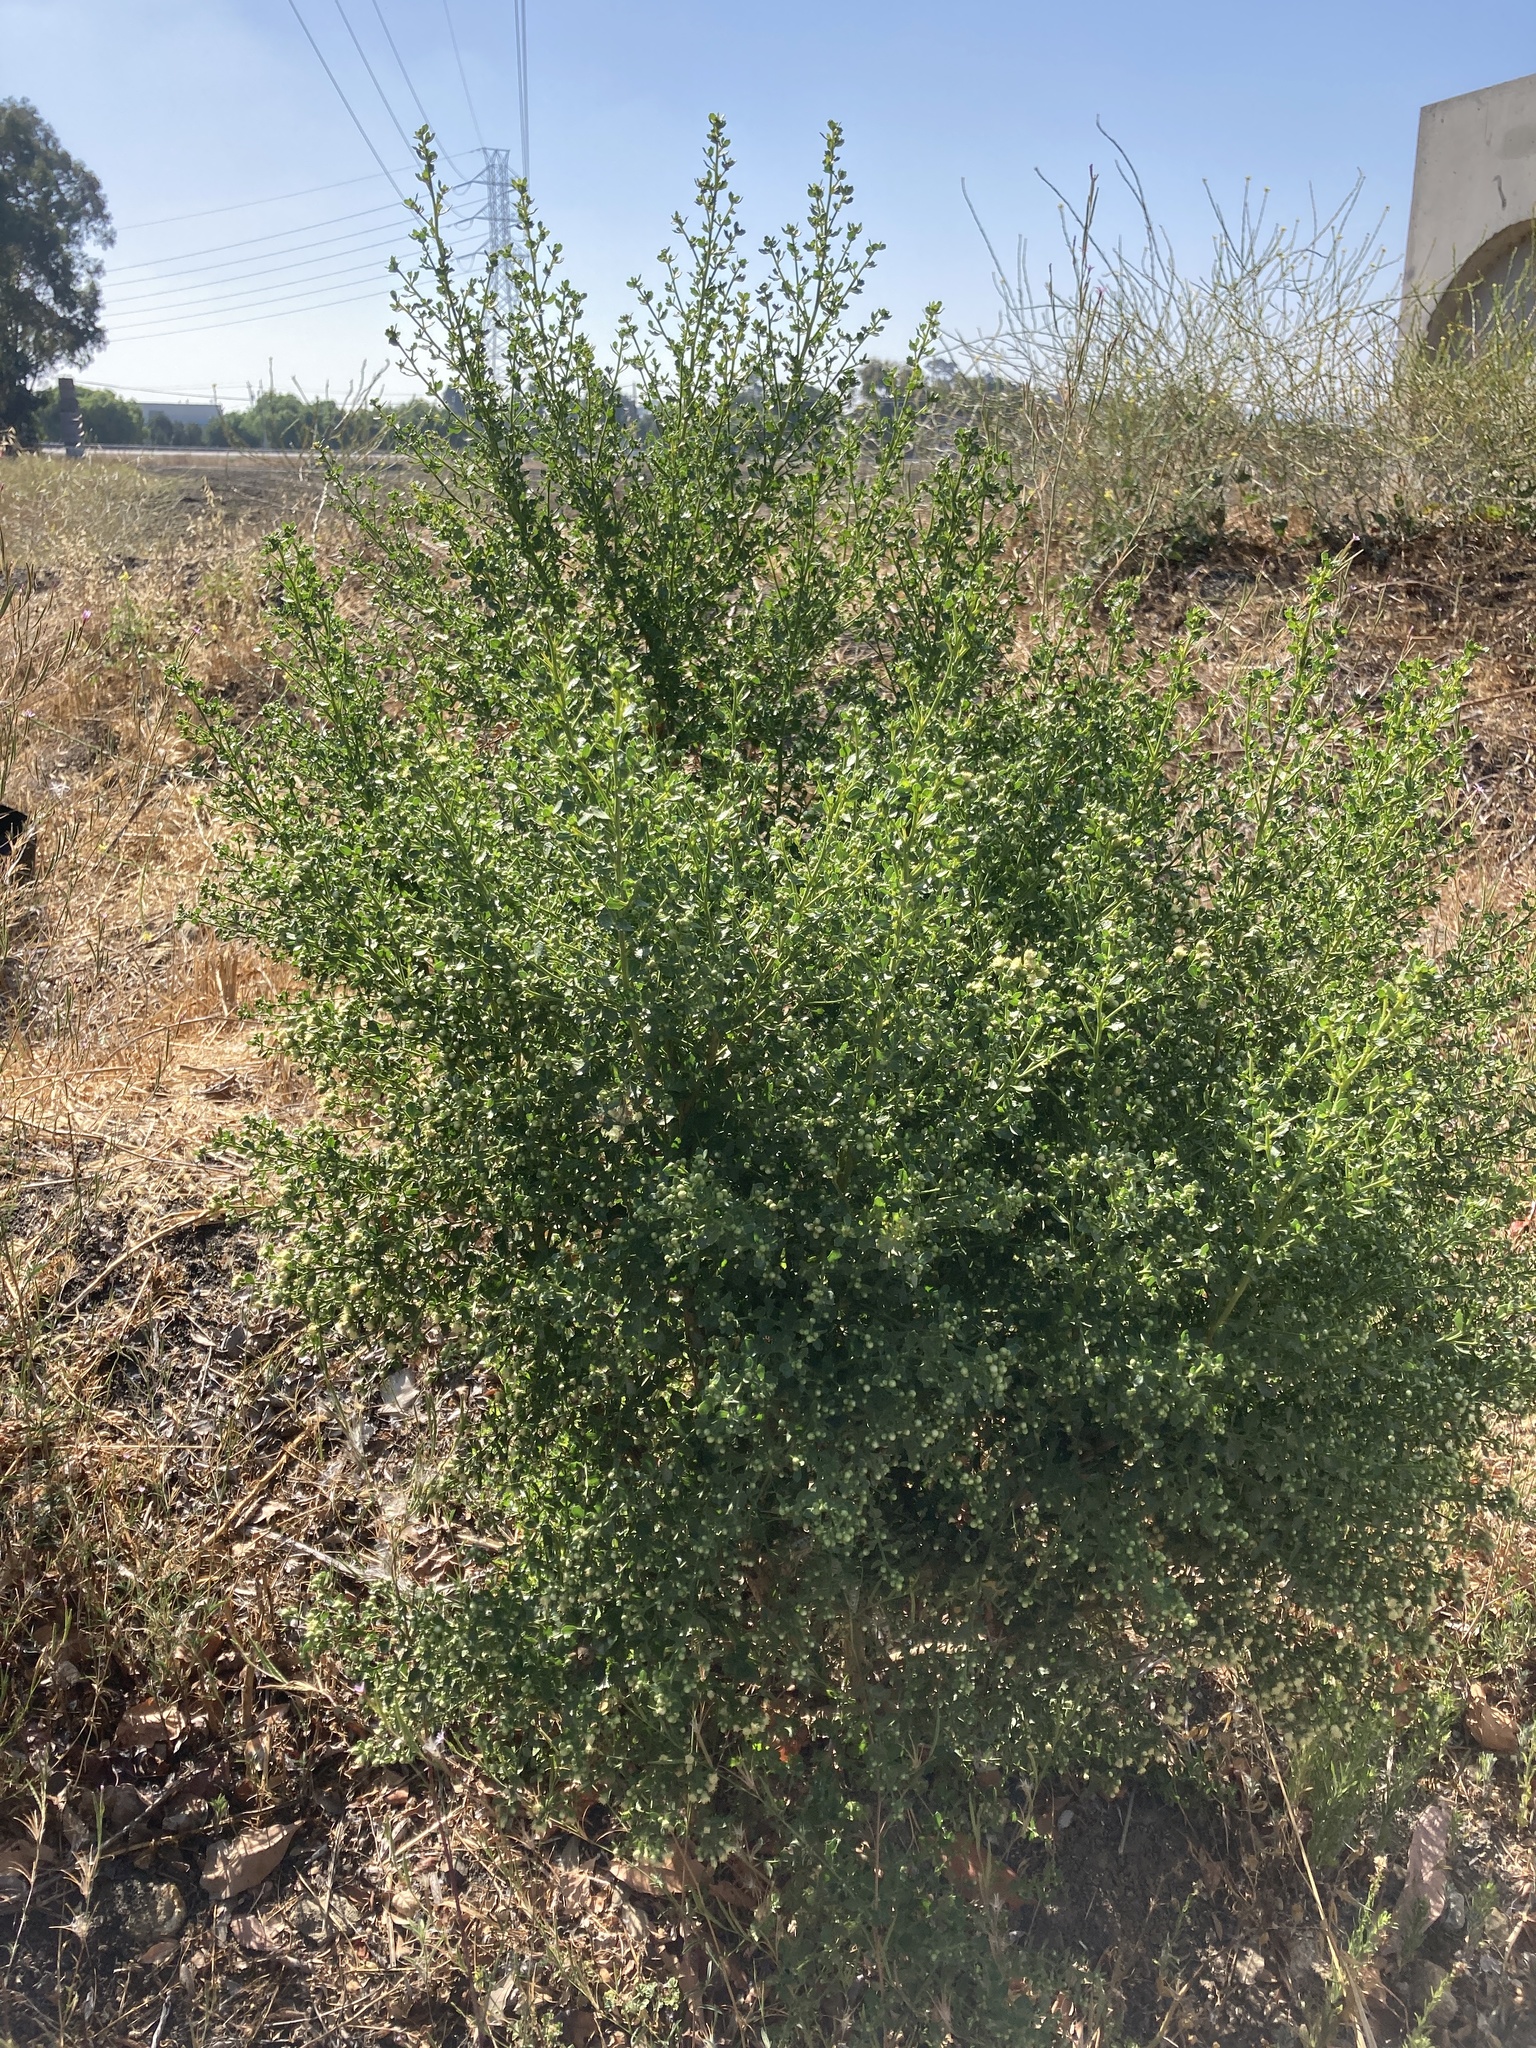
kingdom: Plantae
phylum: Tracheophyta
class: Magnoliopsida
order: Asterales
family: Asteraceae
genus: Baccharis
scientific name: Baccharis pilularis
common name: Coyotebrush
